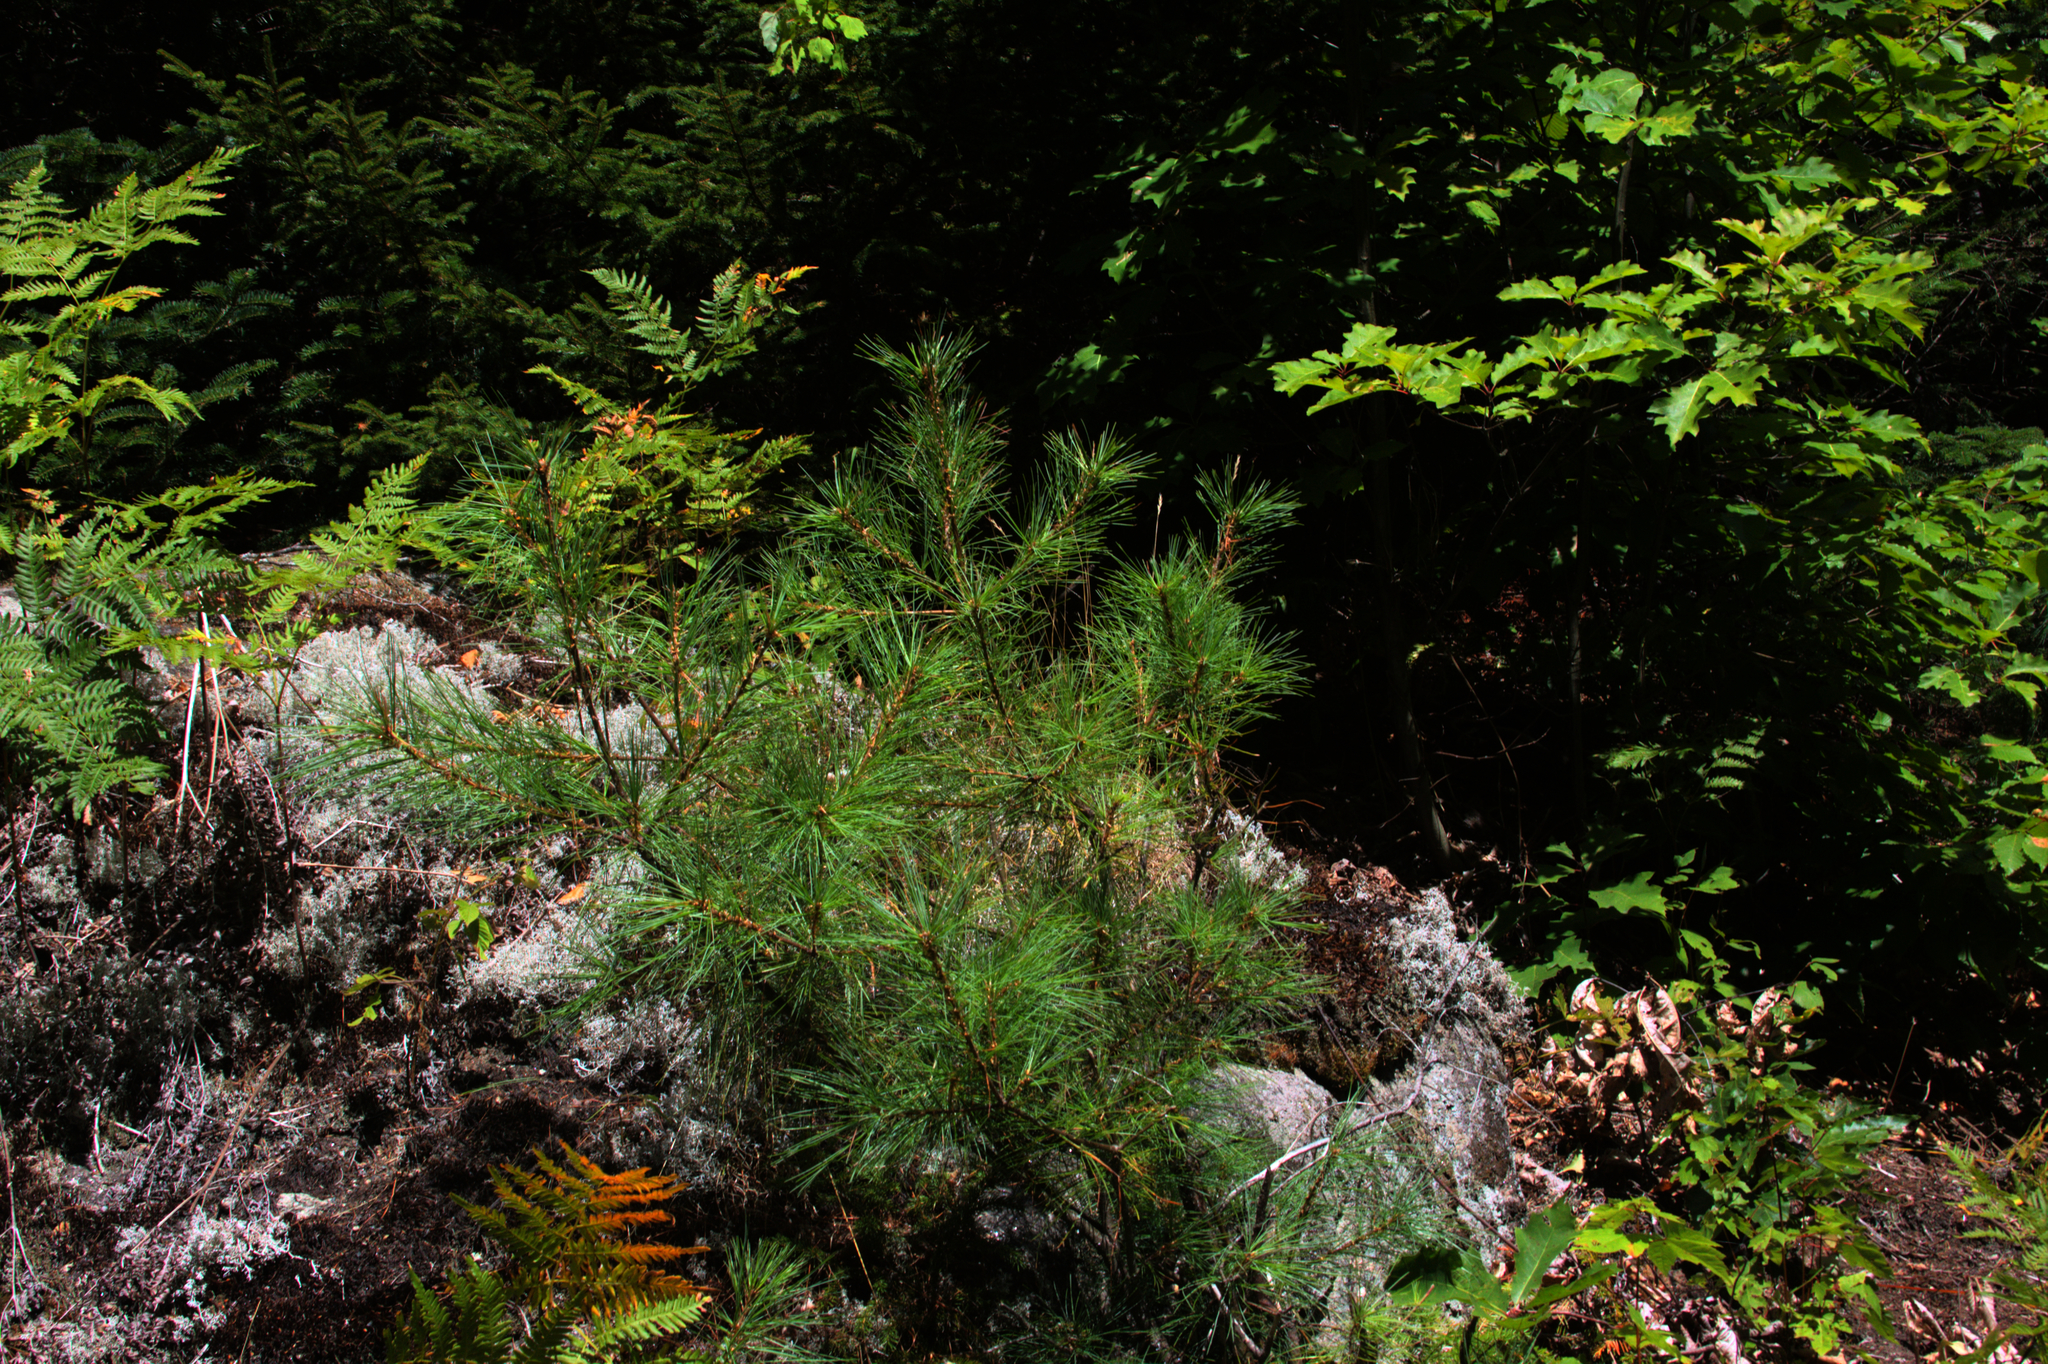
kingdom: Plantae
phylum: Tracheophyta
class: Pinopsida
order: Pinales
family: Pinaceae
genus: Pinus
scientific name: Pinus strobus
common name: Weymouth pine
